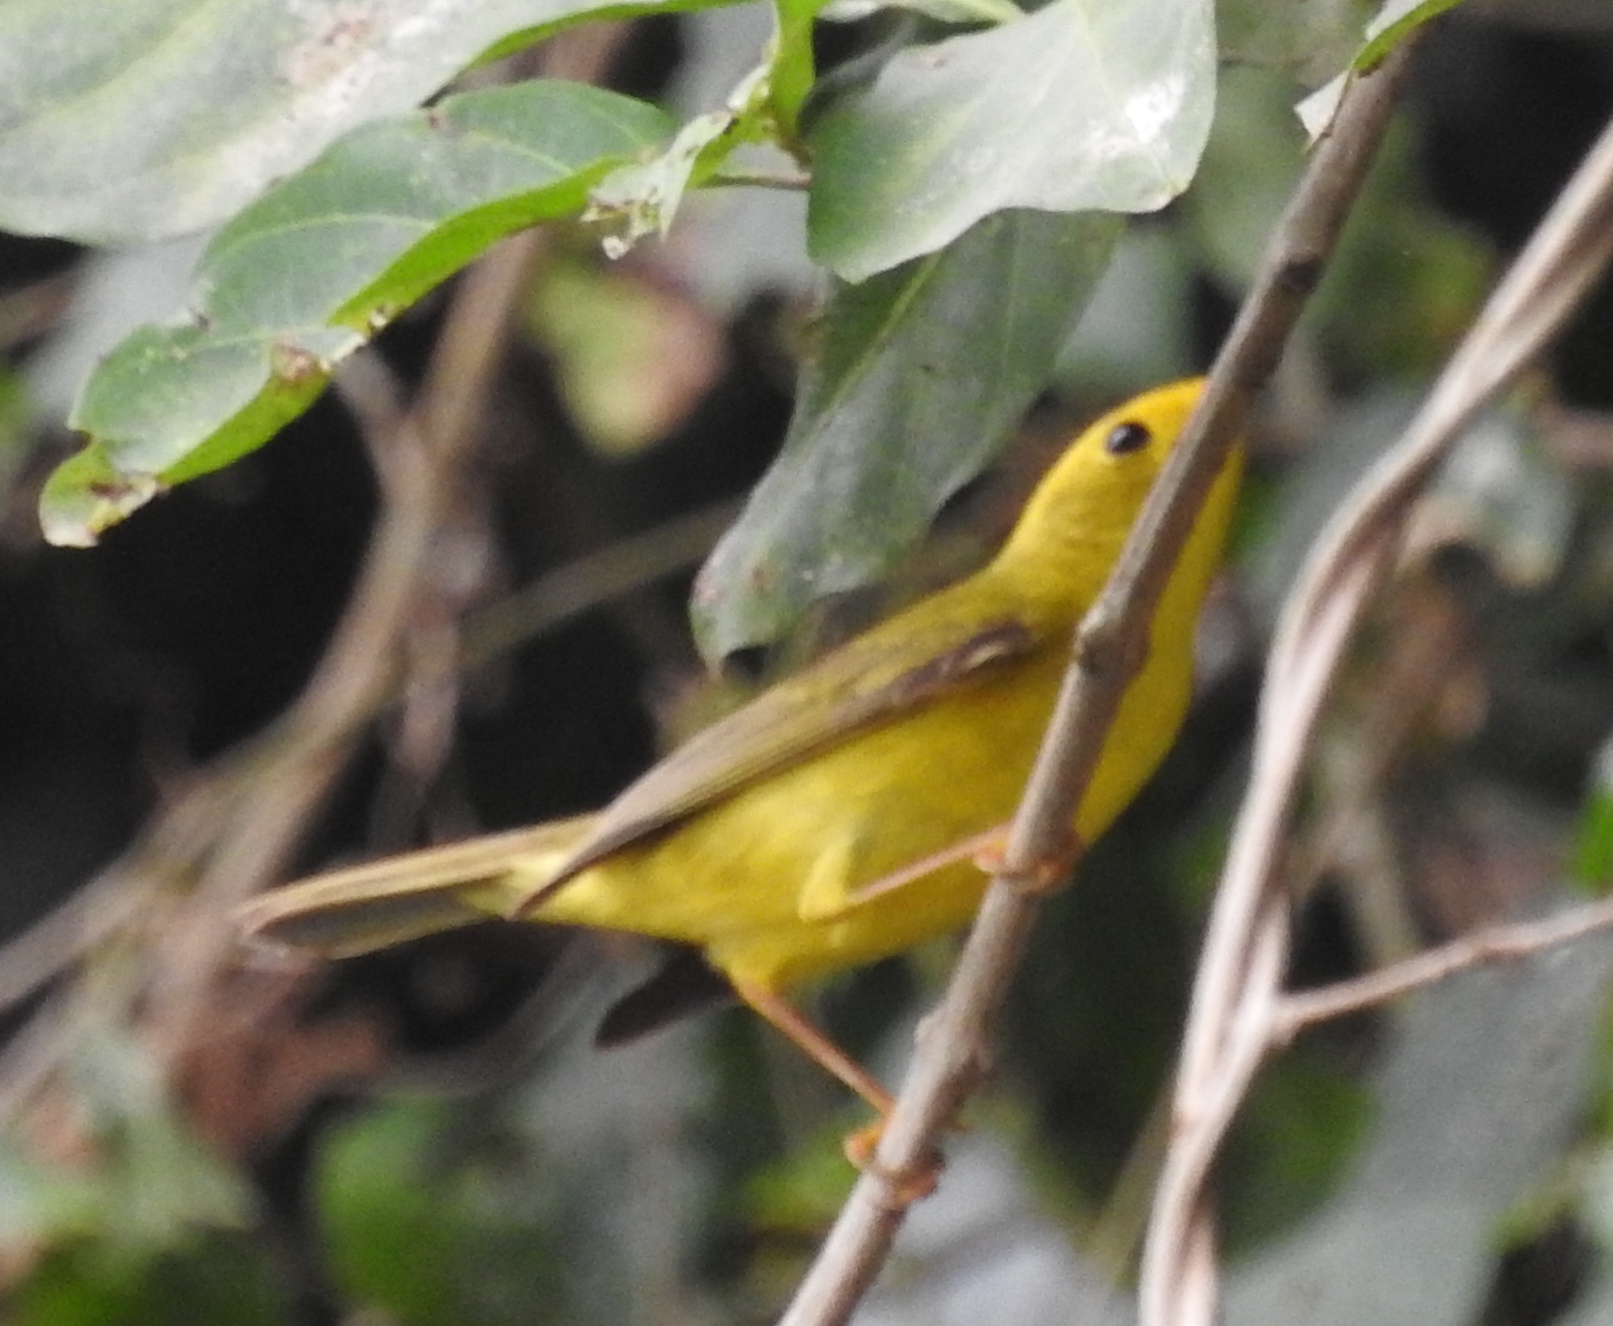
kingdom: Animalia
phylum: Chordata
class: Aves
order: Passeriformes
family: Parulidae
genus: Cardellina
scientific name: Cardellina pusilla
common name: Wilson's warbler
